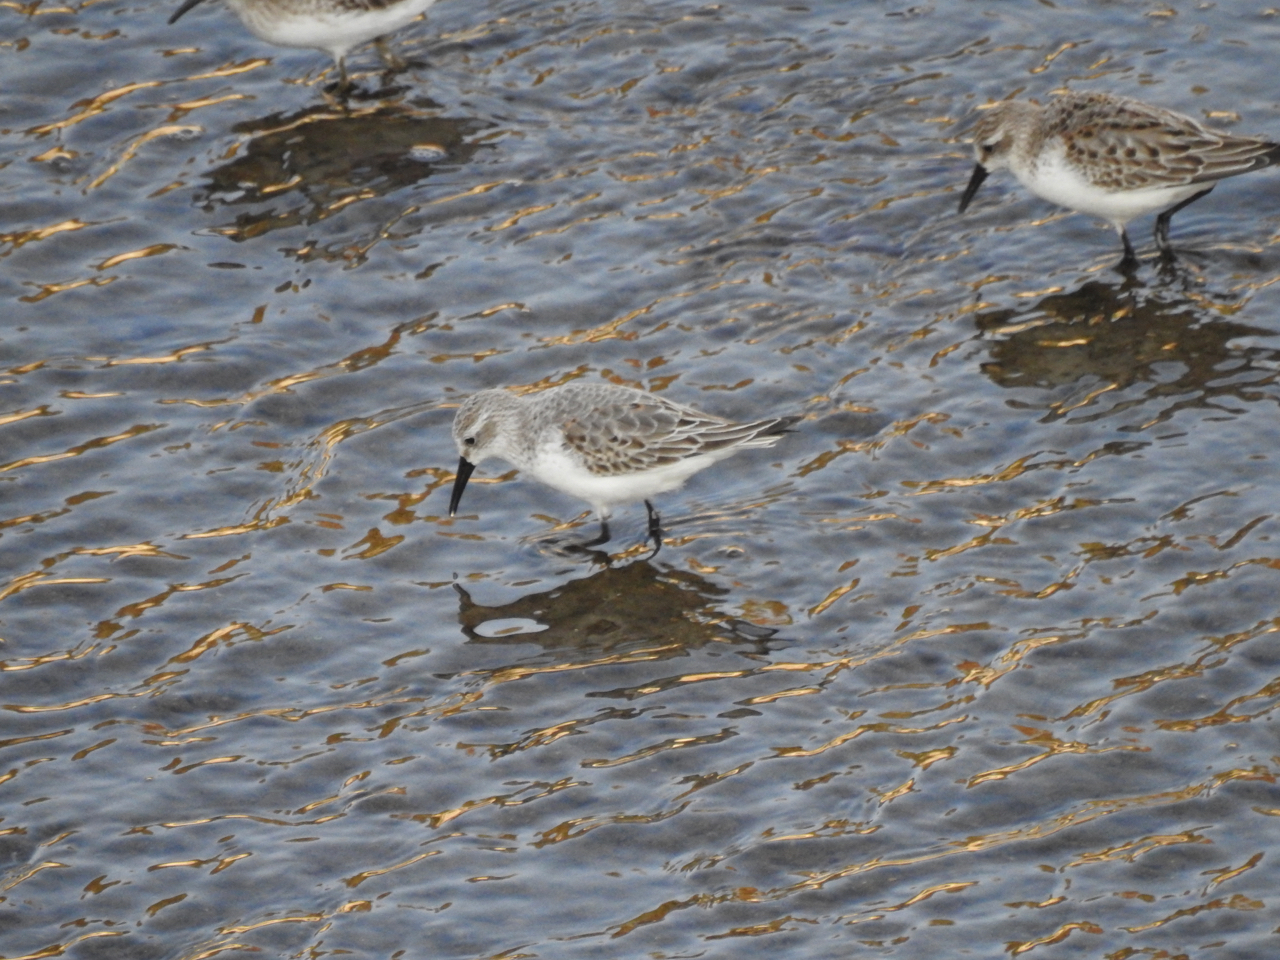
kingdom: Animalia
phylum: Chordata
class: Aves
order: Charadriiformes
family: Scolopacidae
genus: Calidris
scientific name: Calidris mauri
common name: Western sandpiper
